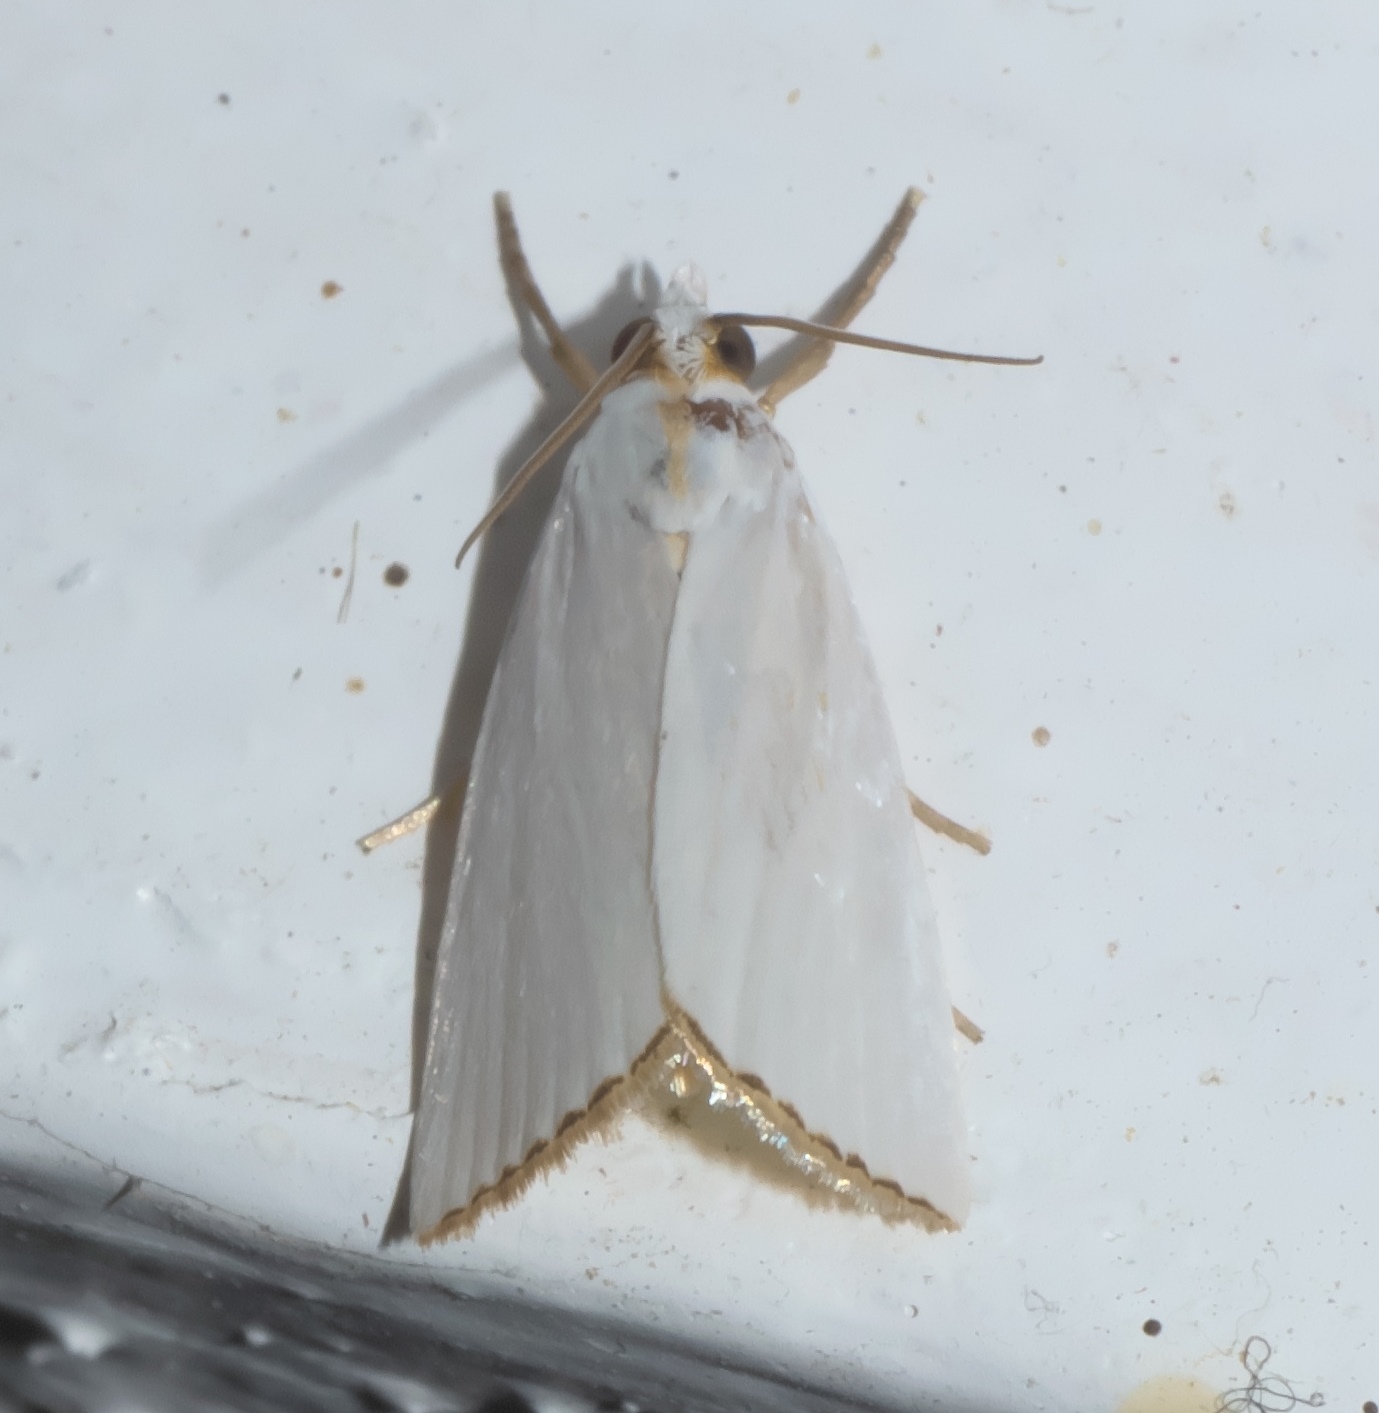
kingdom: Animalia
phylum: Arthropoda
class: Insecta
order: Lepidoptera
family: Crambidae
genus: Argyria
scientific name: Argyria nivalis
